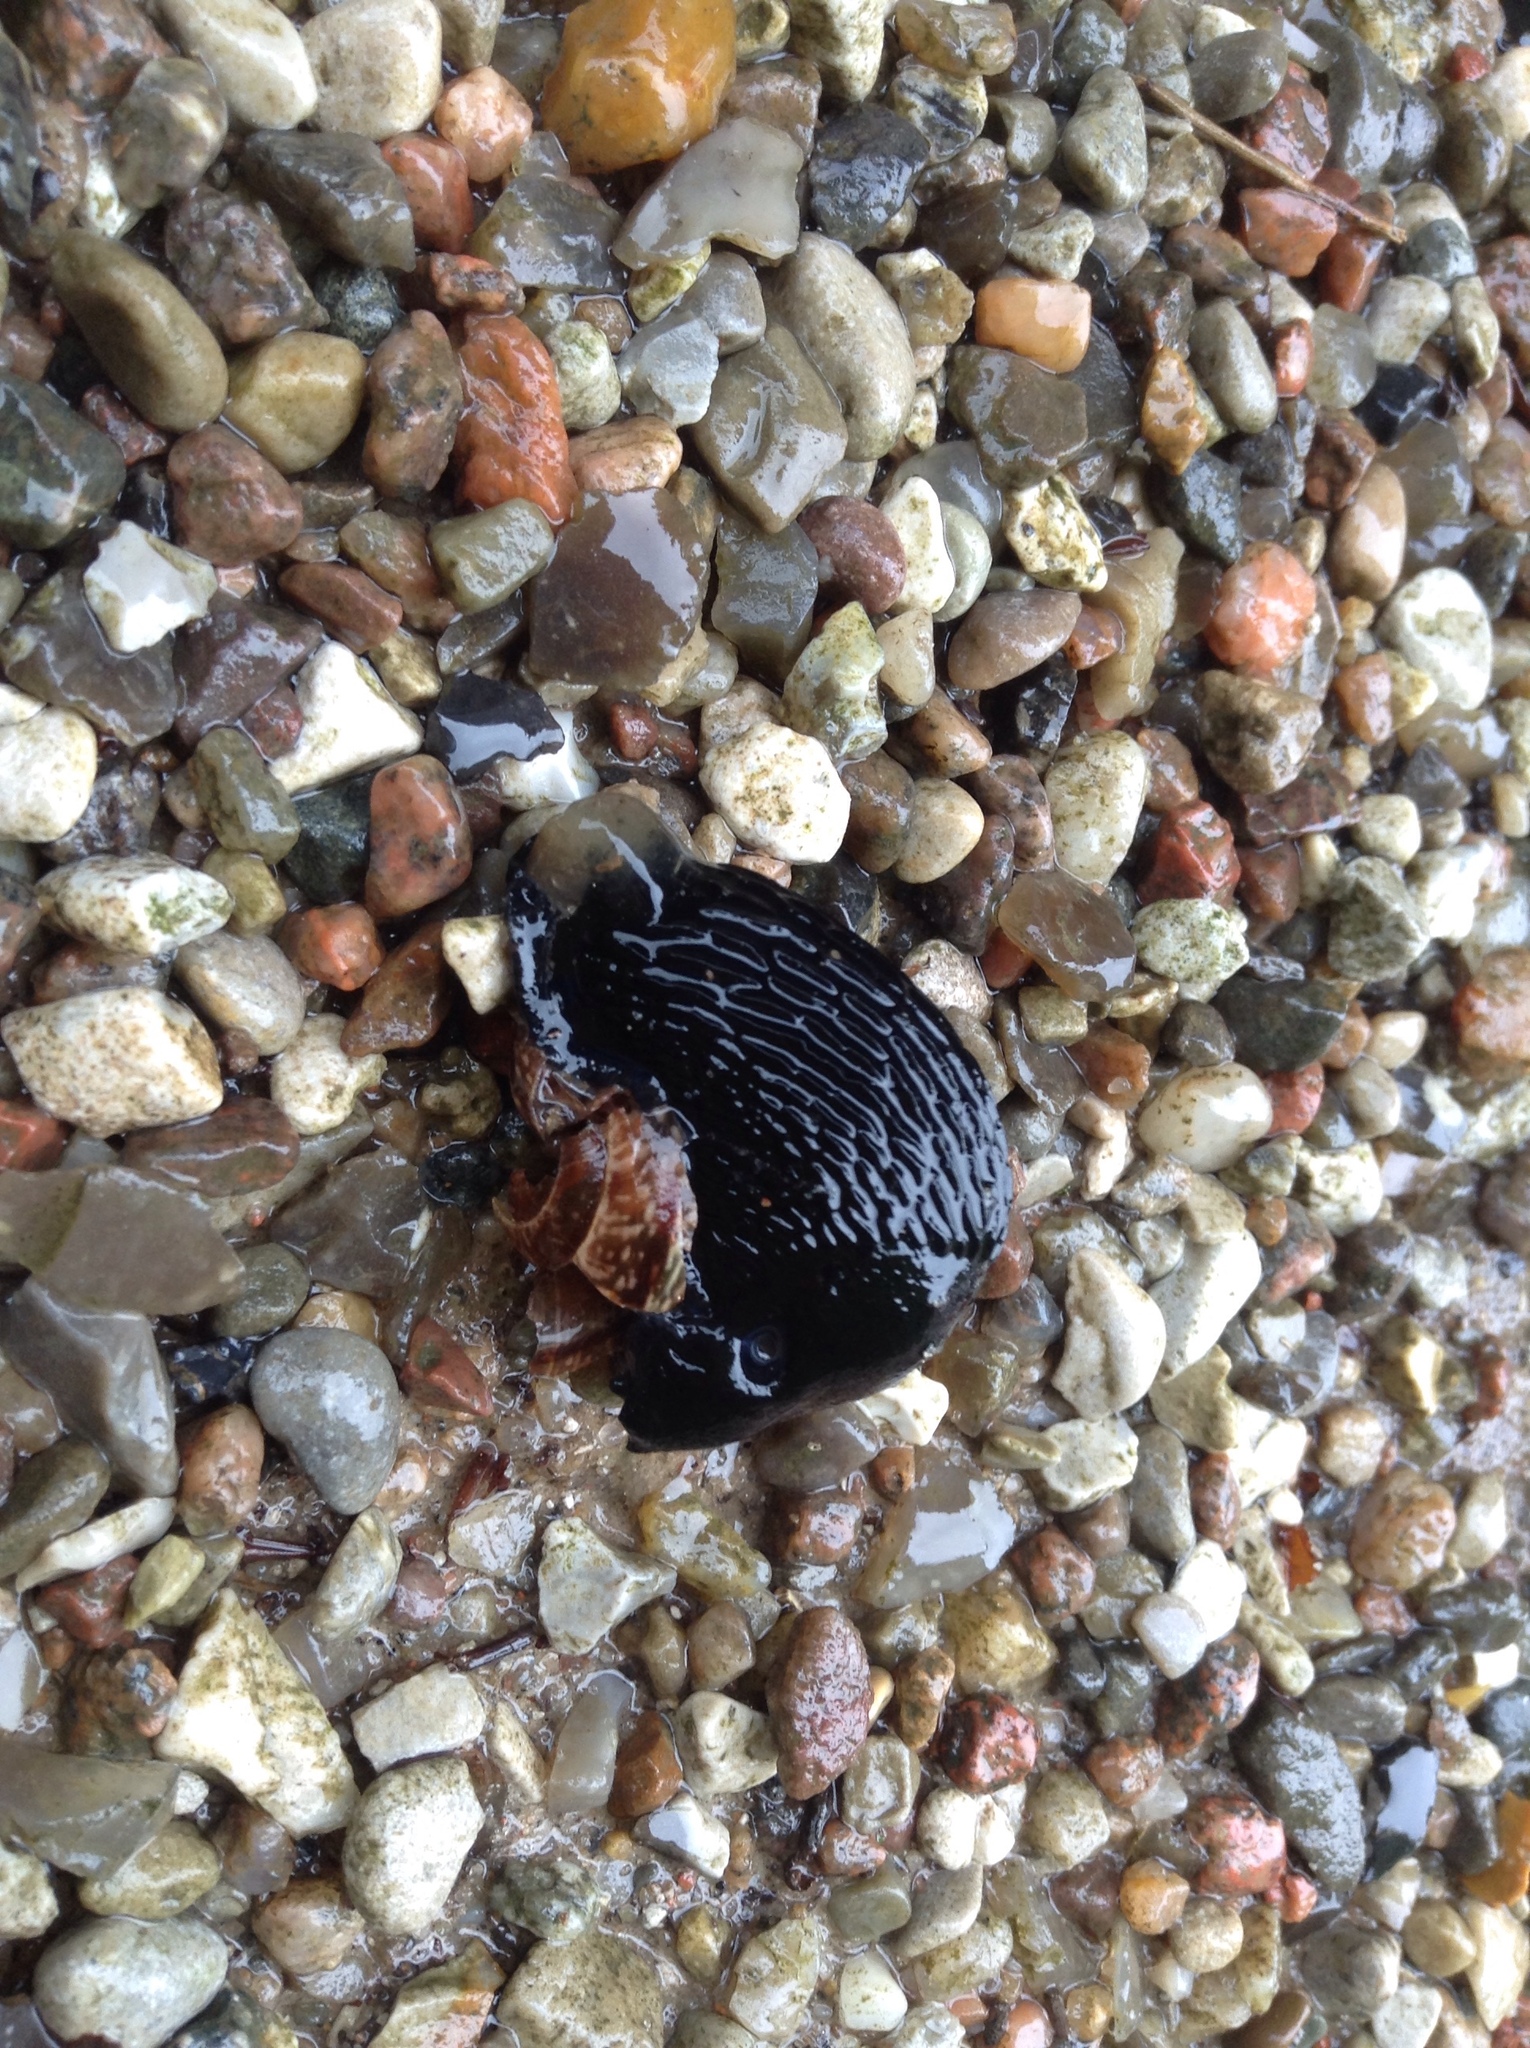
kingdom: Animalia
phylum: Mollusca
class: Gastropoda
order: Stylommatophora
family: Arionidae
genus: Arion
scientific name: Arion ater
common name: Black arion
